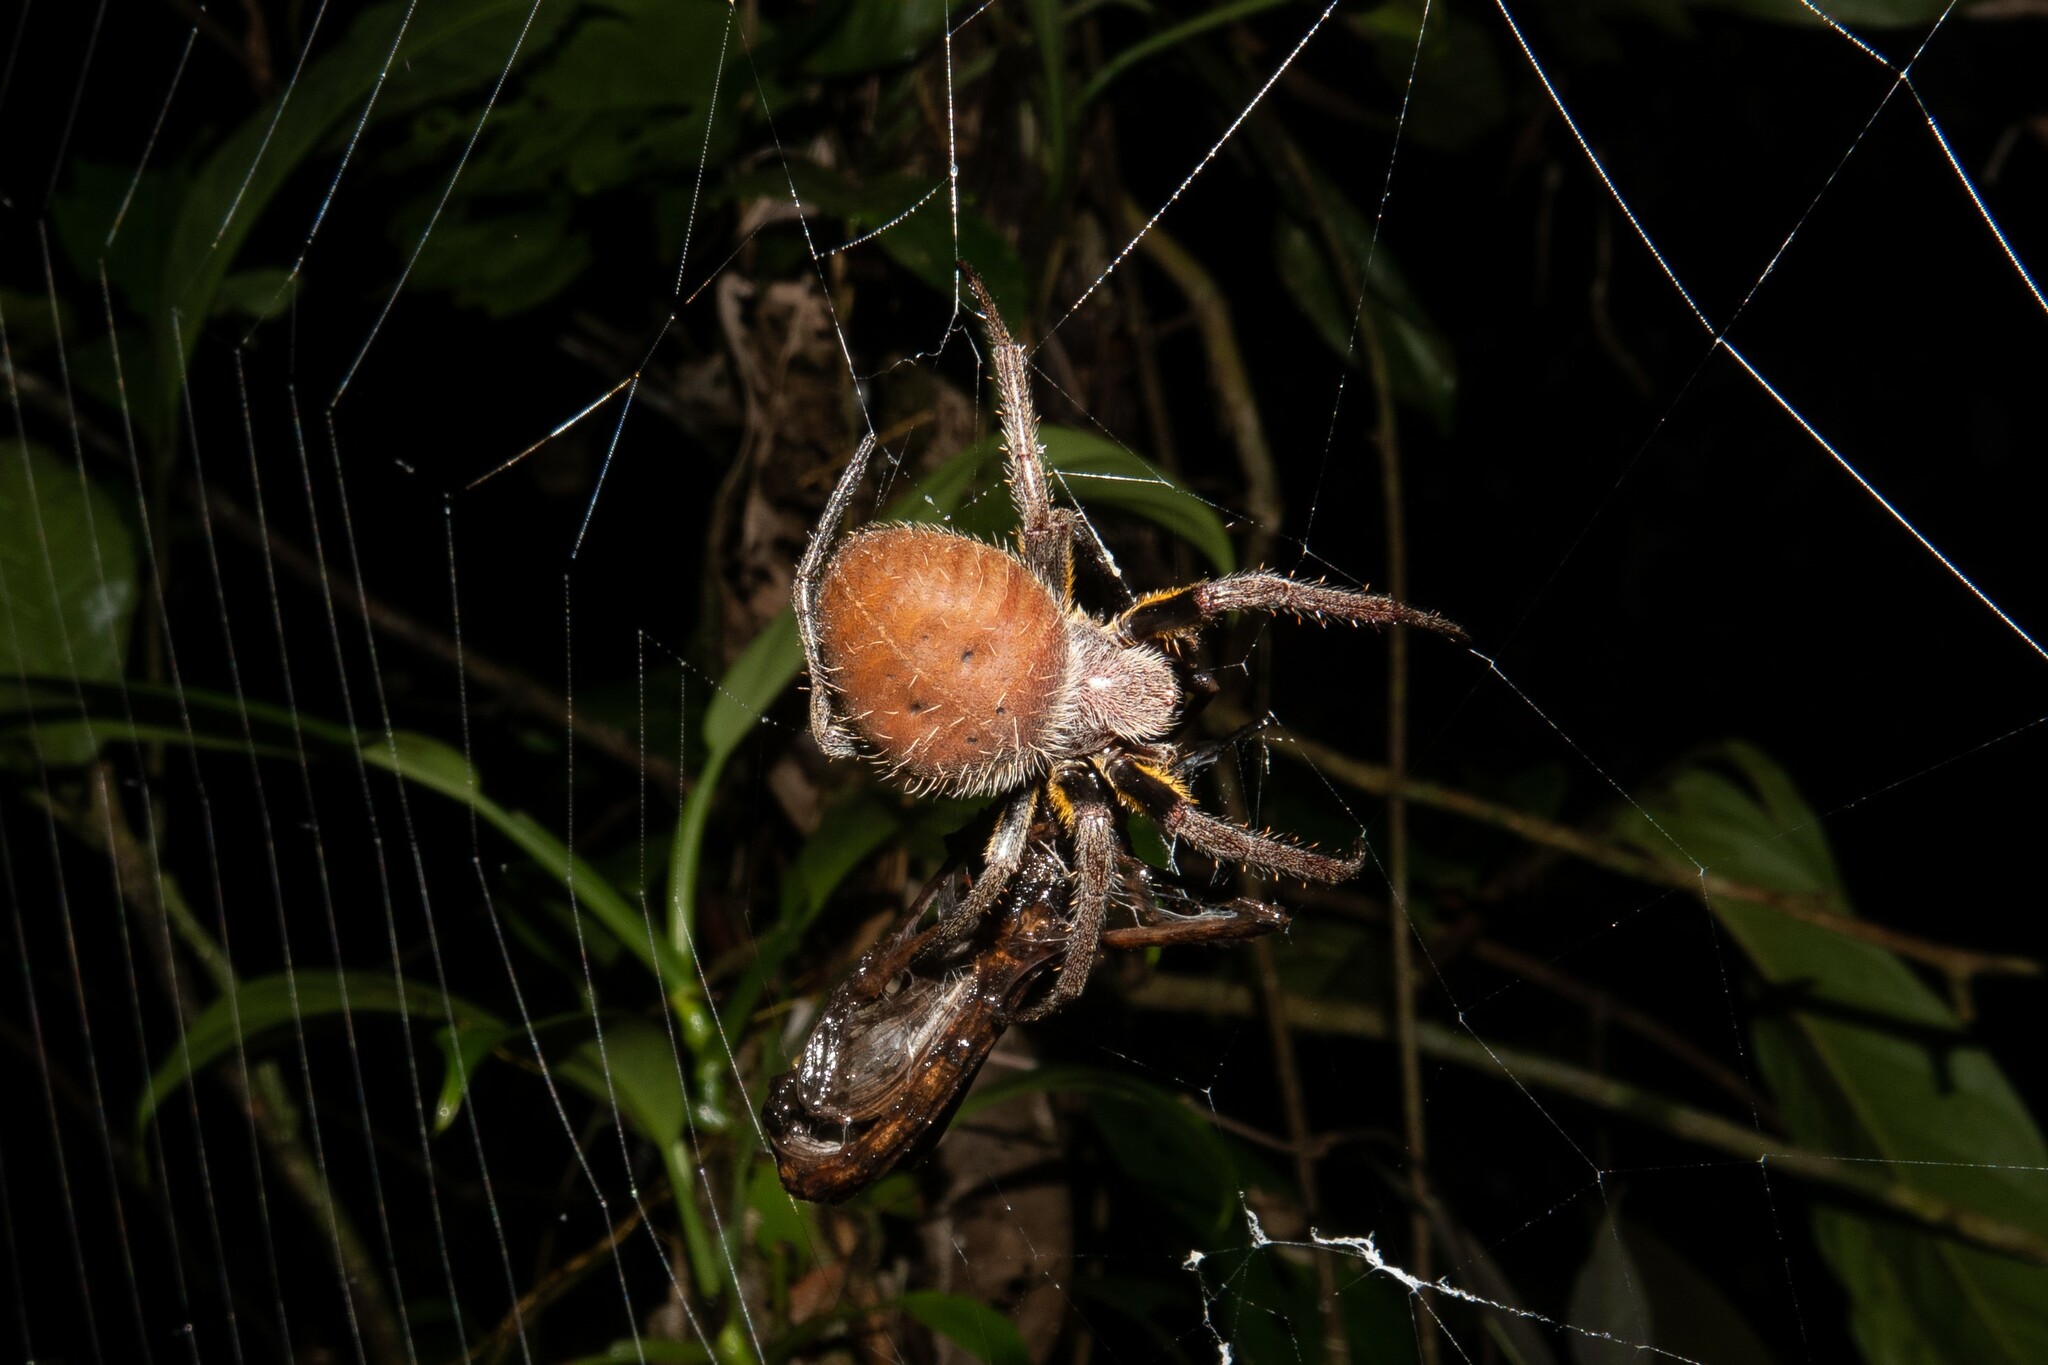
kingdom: Animalia
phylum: Arthropoda
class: Arachnida
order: Araneae
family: Araneidae
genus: Eriophora
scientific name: Eriophora fuliginea
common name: Orb weavers
